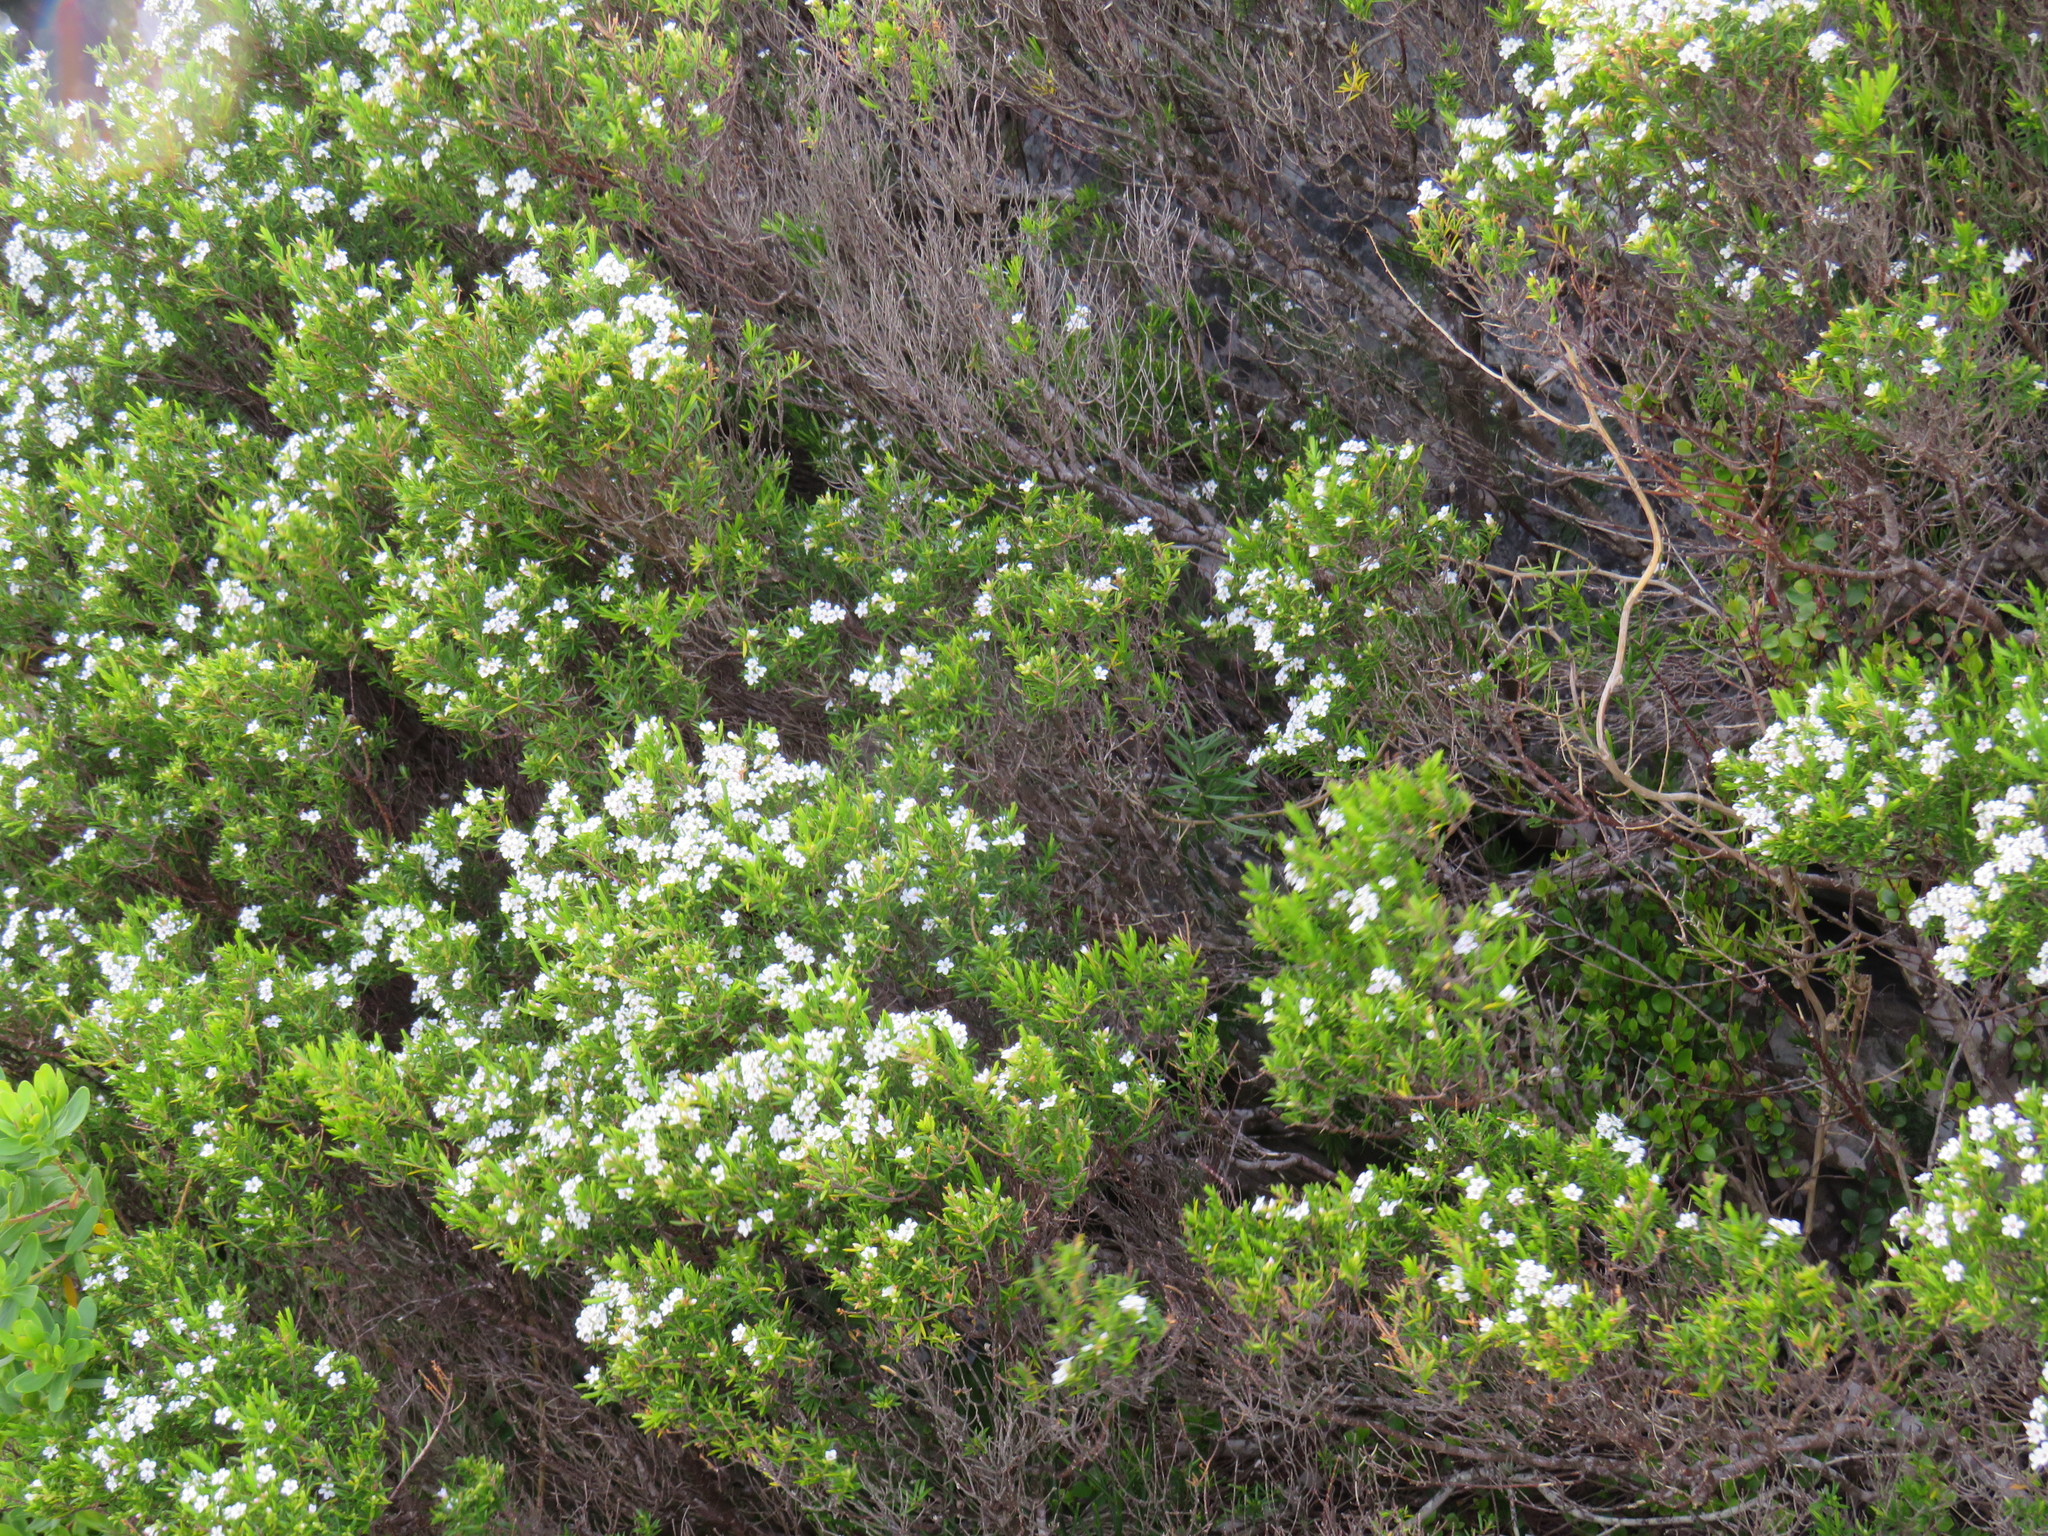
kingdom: Plantae
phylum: Tracheophyta
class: Magnoliopsida
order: Sapindales
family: Rutaceae
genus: Coleonema
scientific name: Coleonema album
